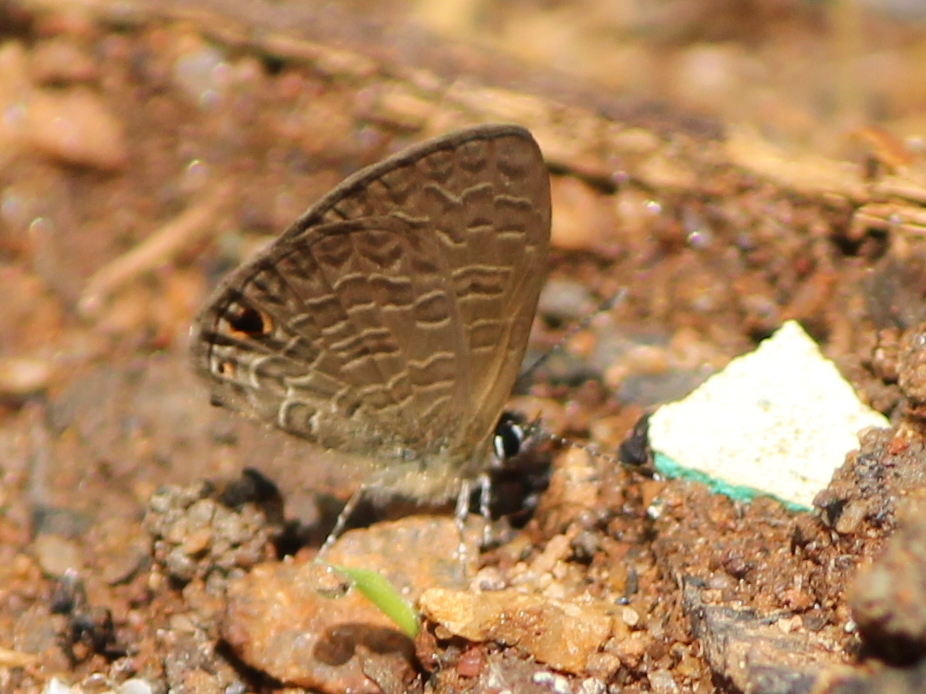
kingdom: Animalia
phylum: Arthropoda
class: Insecta
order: Lepidoptera
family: Lycaenidae
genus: Prosotas
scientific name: Prosotas dubiosa
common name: Tailless lineblue
